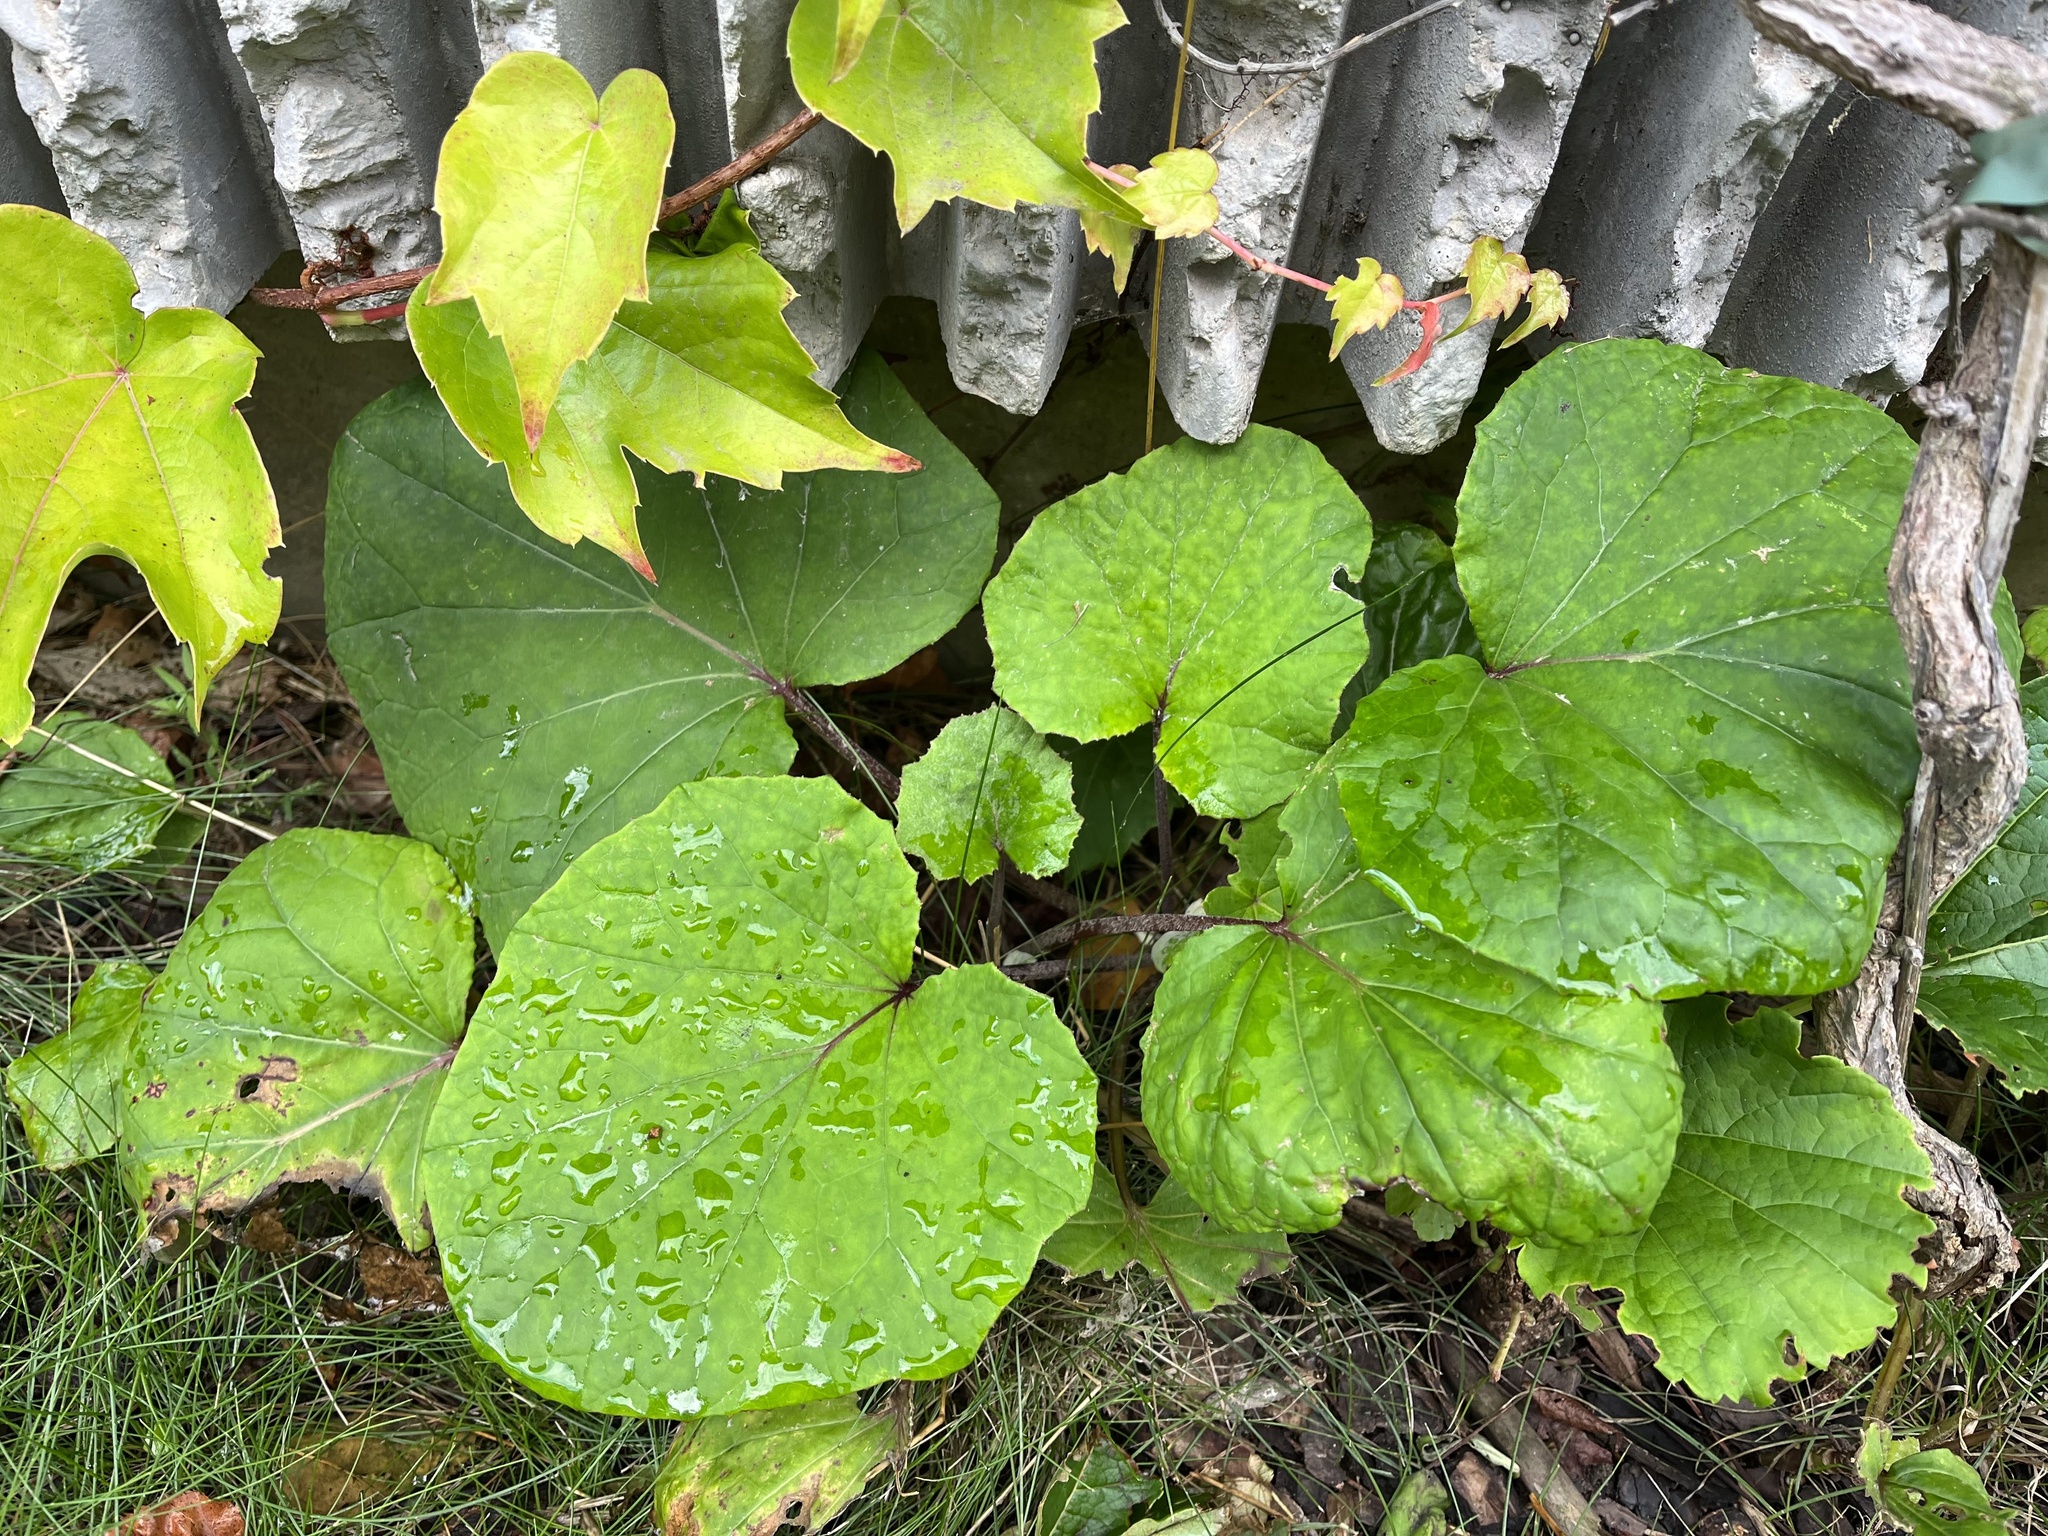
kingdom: Plantae
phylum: Tracheophyta
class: Magnoliopsida
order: Asterales
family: Asteraceae
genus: Tussilago
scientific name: Tussilago farfara
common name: Coltsfoot
